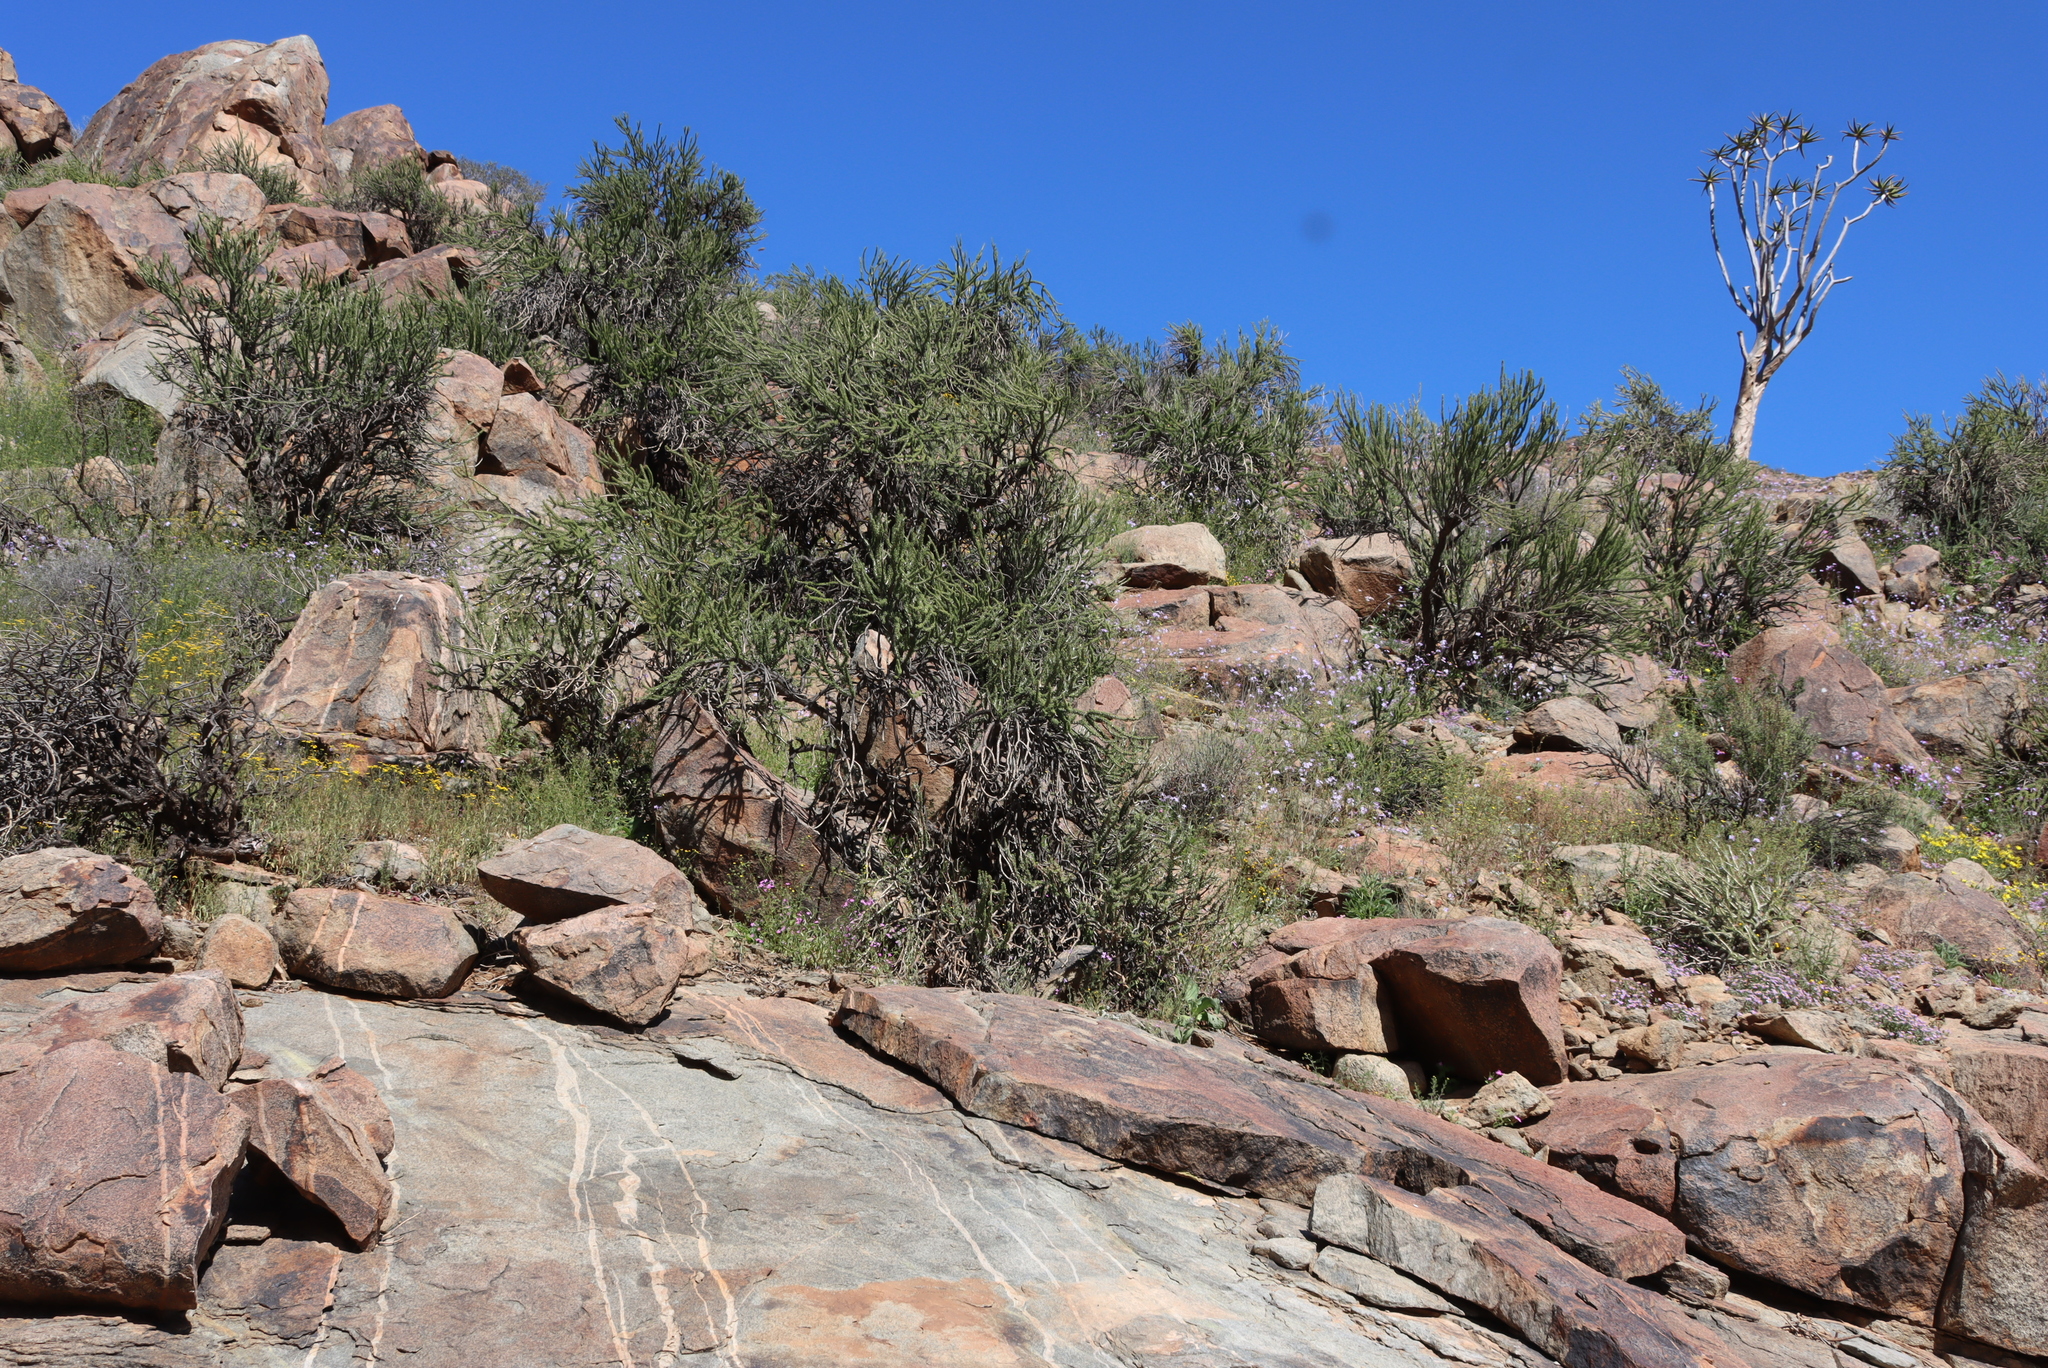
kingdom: Plantae
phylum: Tracheophyta
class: Liliopsida
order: Asparagales
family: Asphodelaceae
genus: Aloidendron
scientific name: Aloidendron dichotomum
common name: Quiver tree
